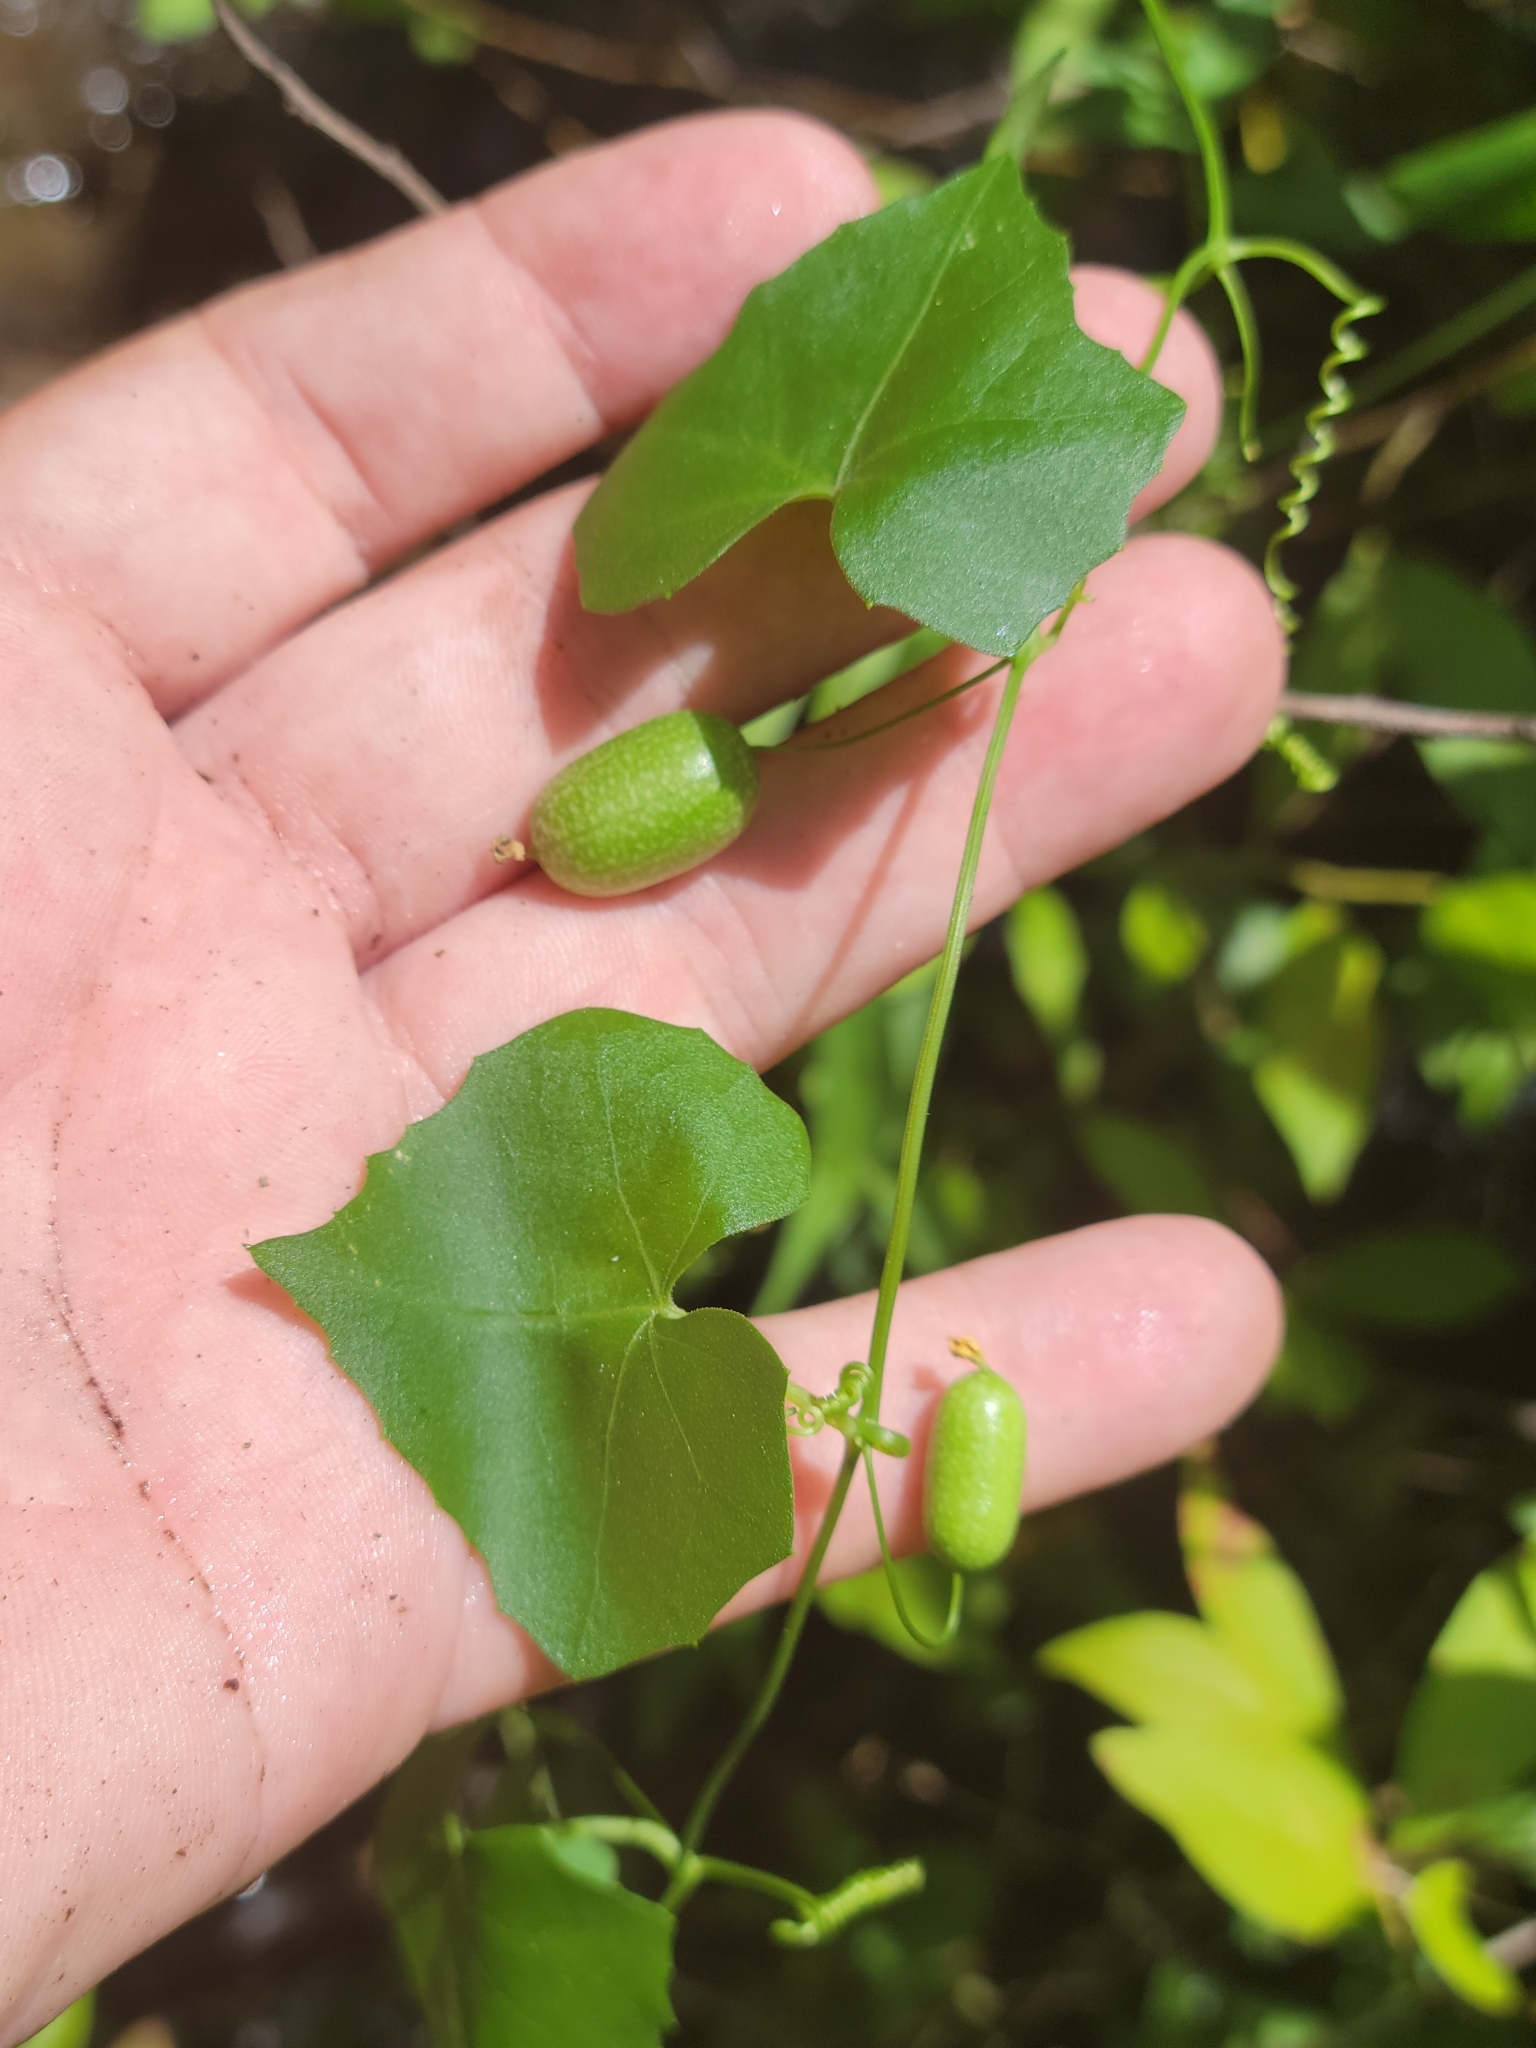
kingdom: Plantae
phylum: Tracheophyta
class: Magnoliopsida
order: Cucurbitales
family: Cucurbitaceae
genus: Melothria
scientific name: Melothria pendula
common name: Creeping-cucumber
